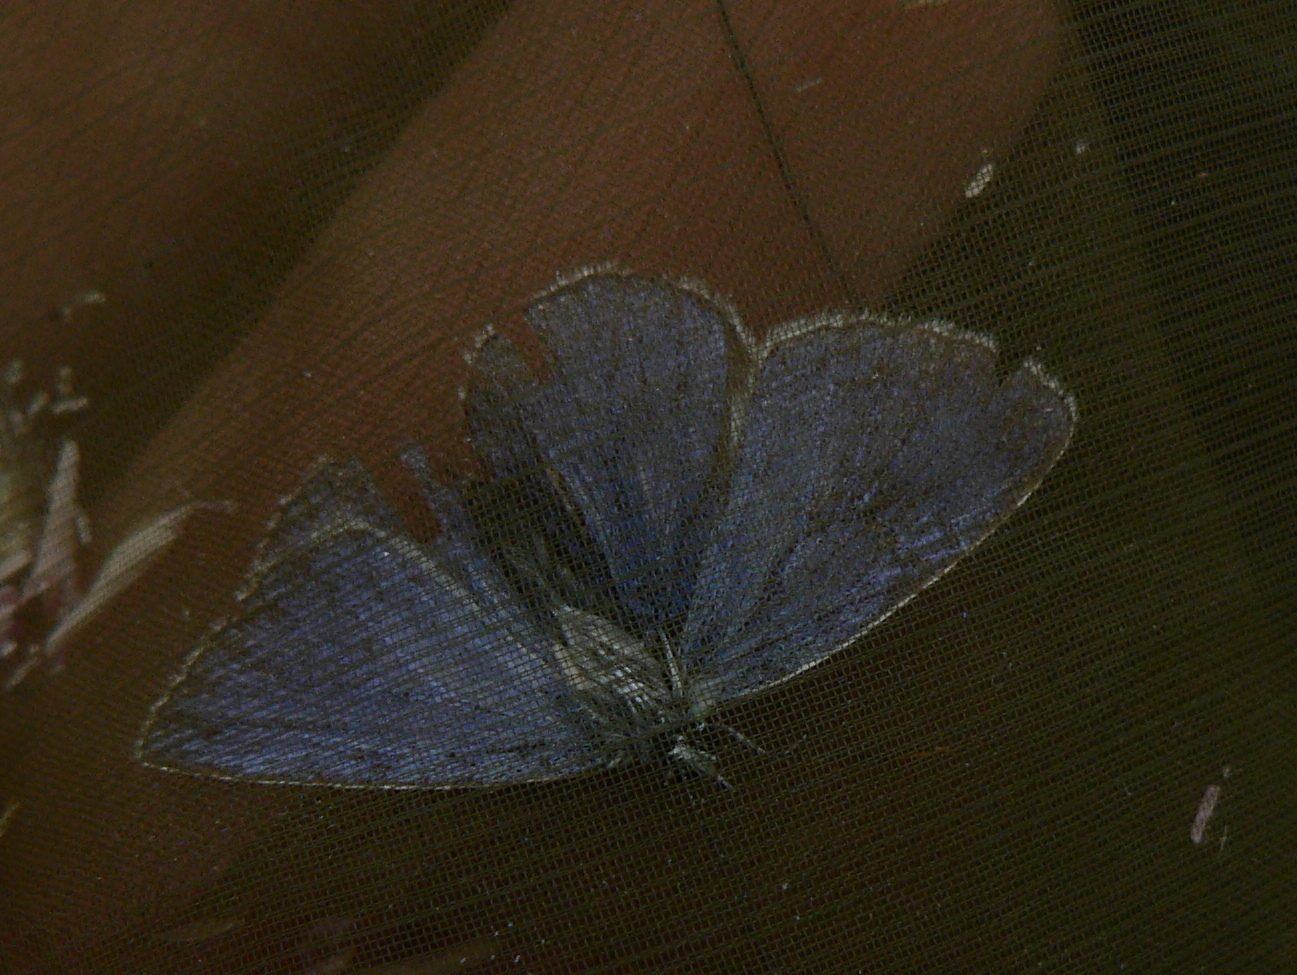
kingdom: Animalia
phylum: Arthropoda
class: Insecta
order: Lepidoptera
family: Lycaenidae
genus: Polyommatus
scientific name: Polyommatus icarus
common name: Common blue
